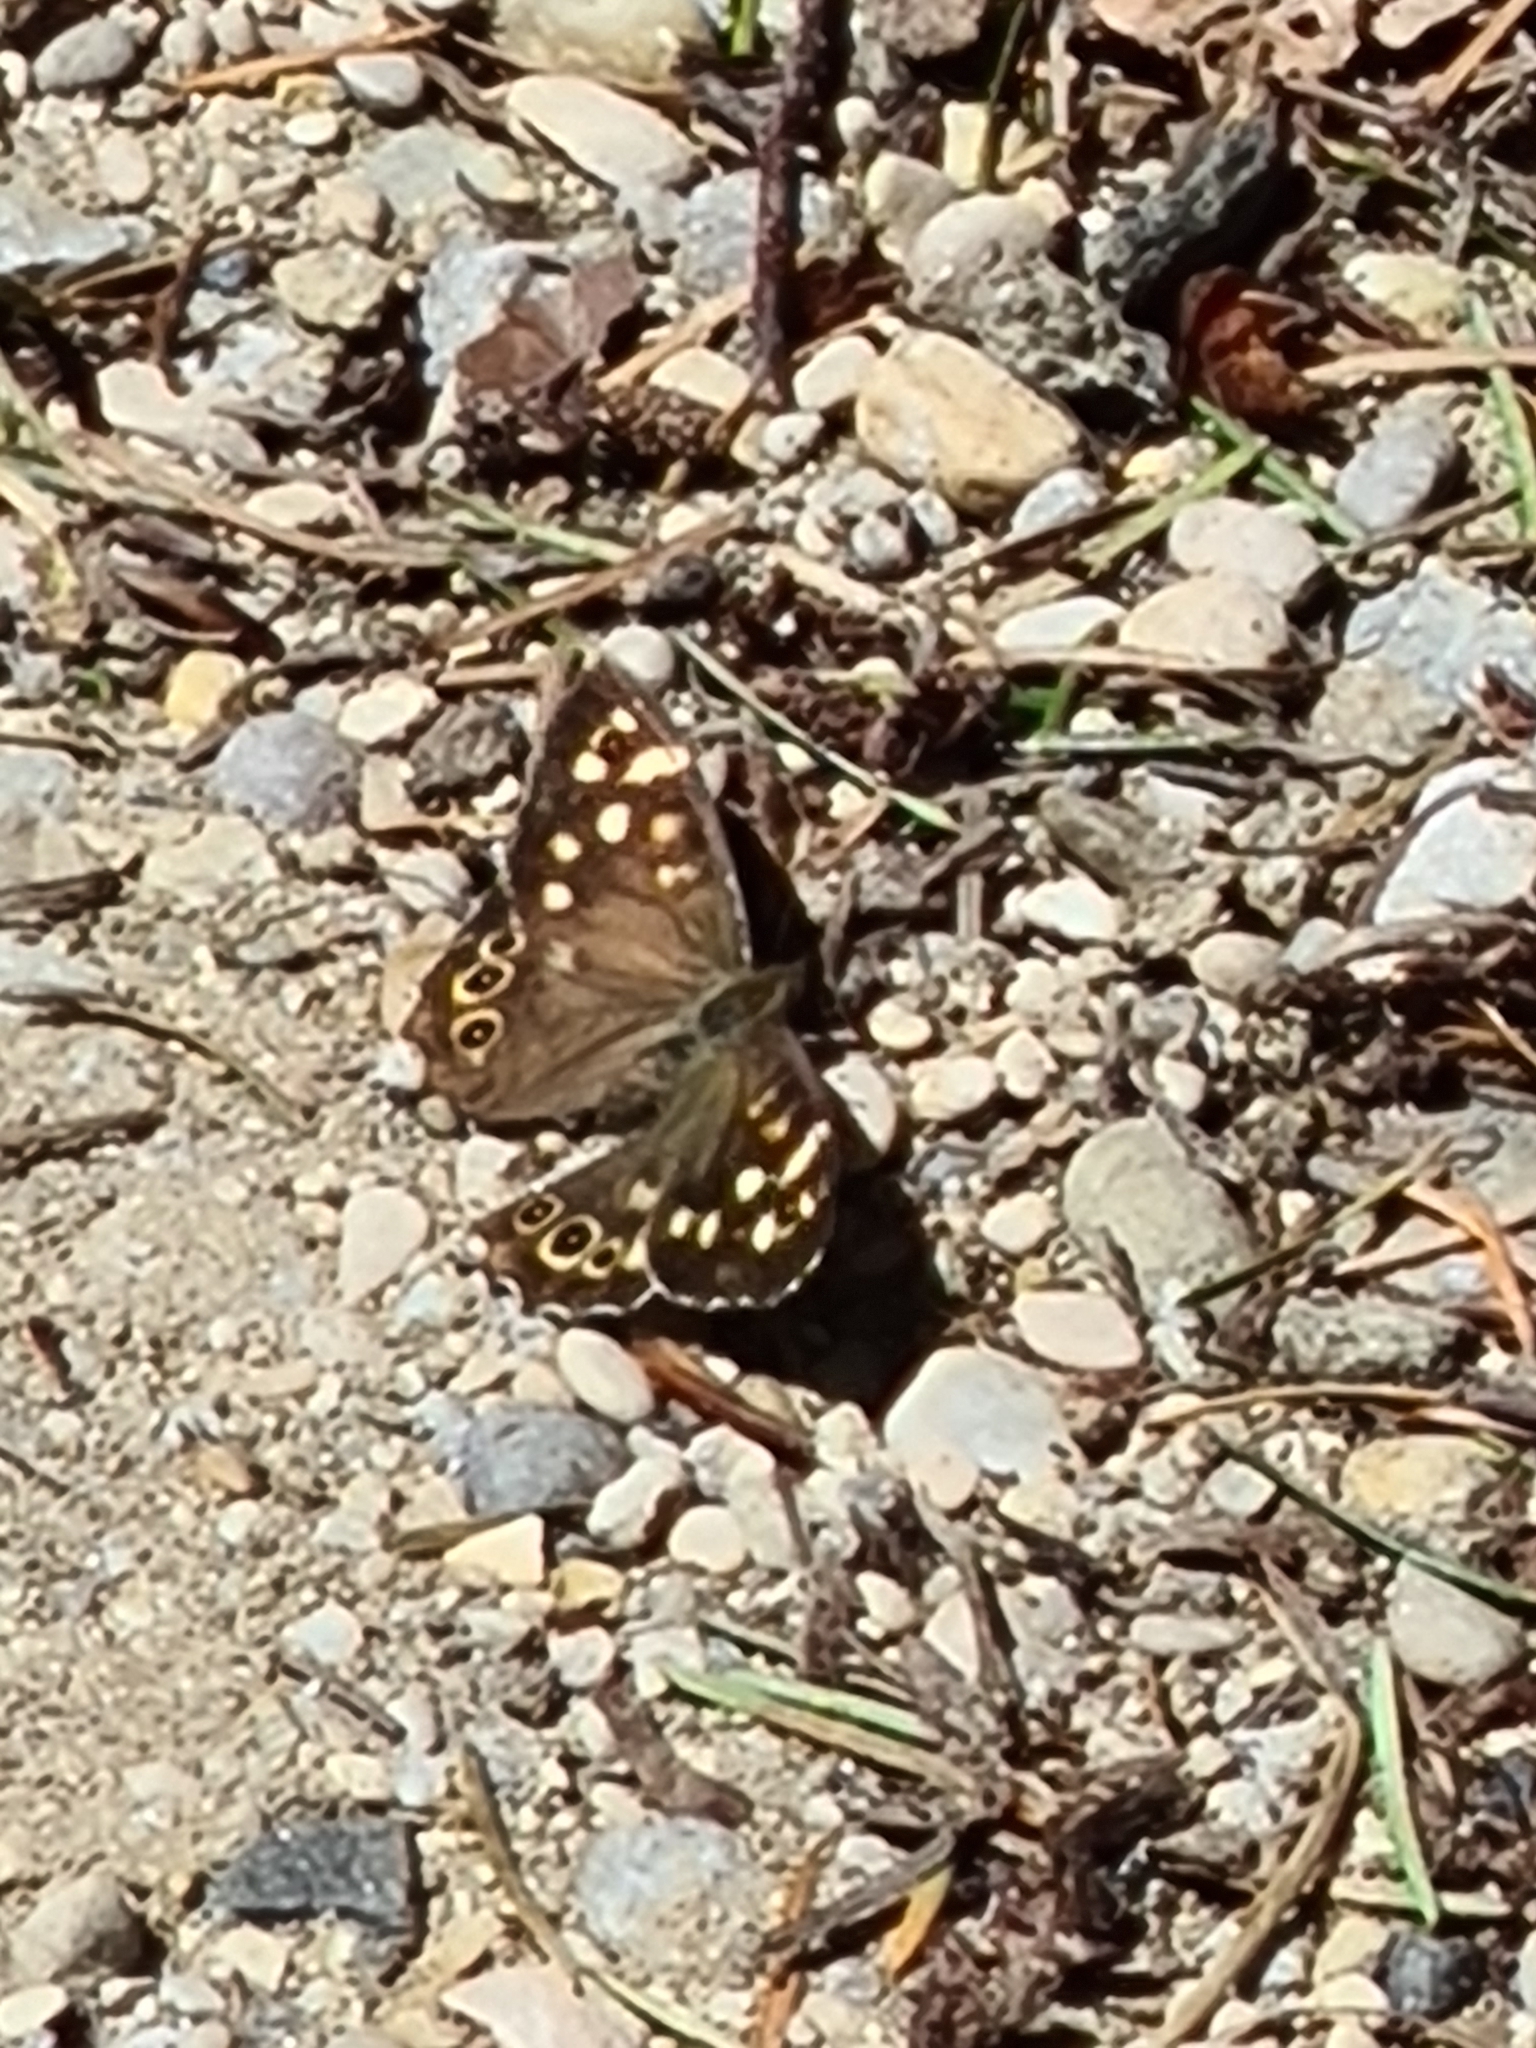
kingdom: Animalia
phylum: Arthropoda
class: Insecta
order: Lepidoptera
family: Nymphalidae
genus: Pararge
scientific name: Pararge aegeria
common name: Speckled wood
